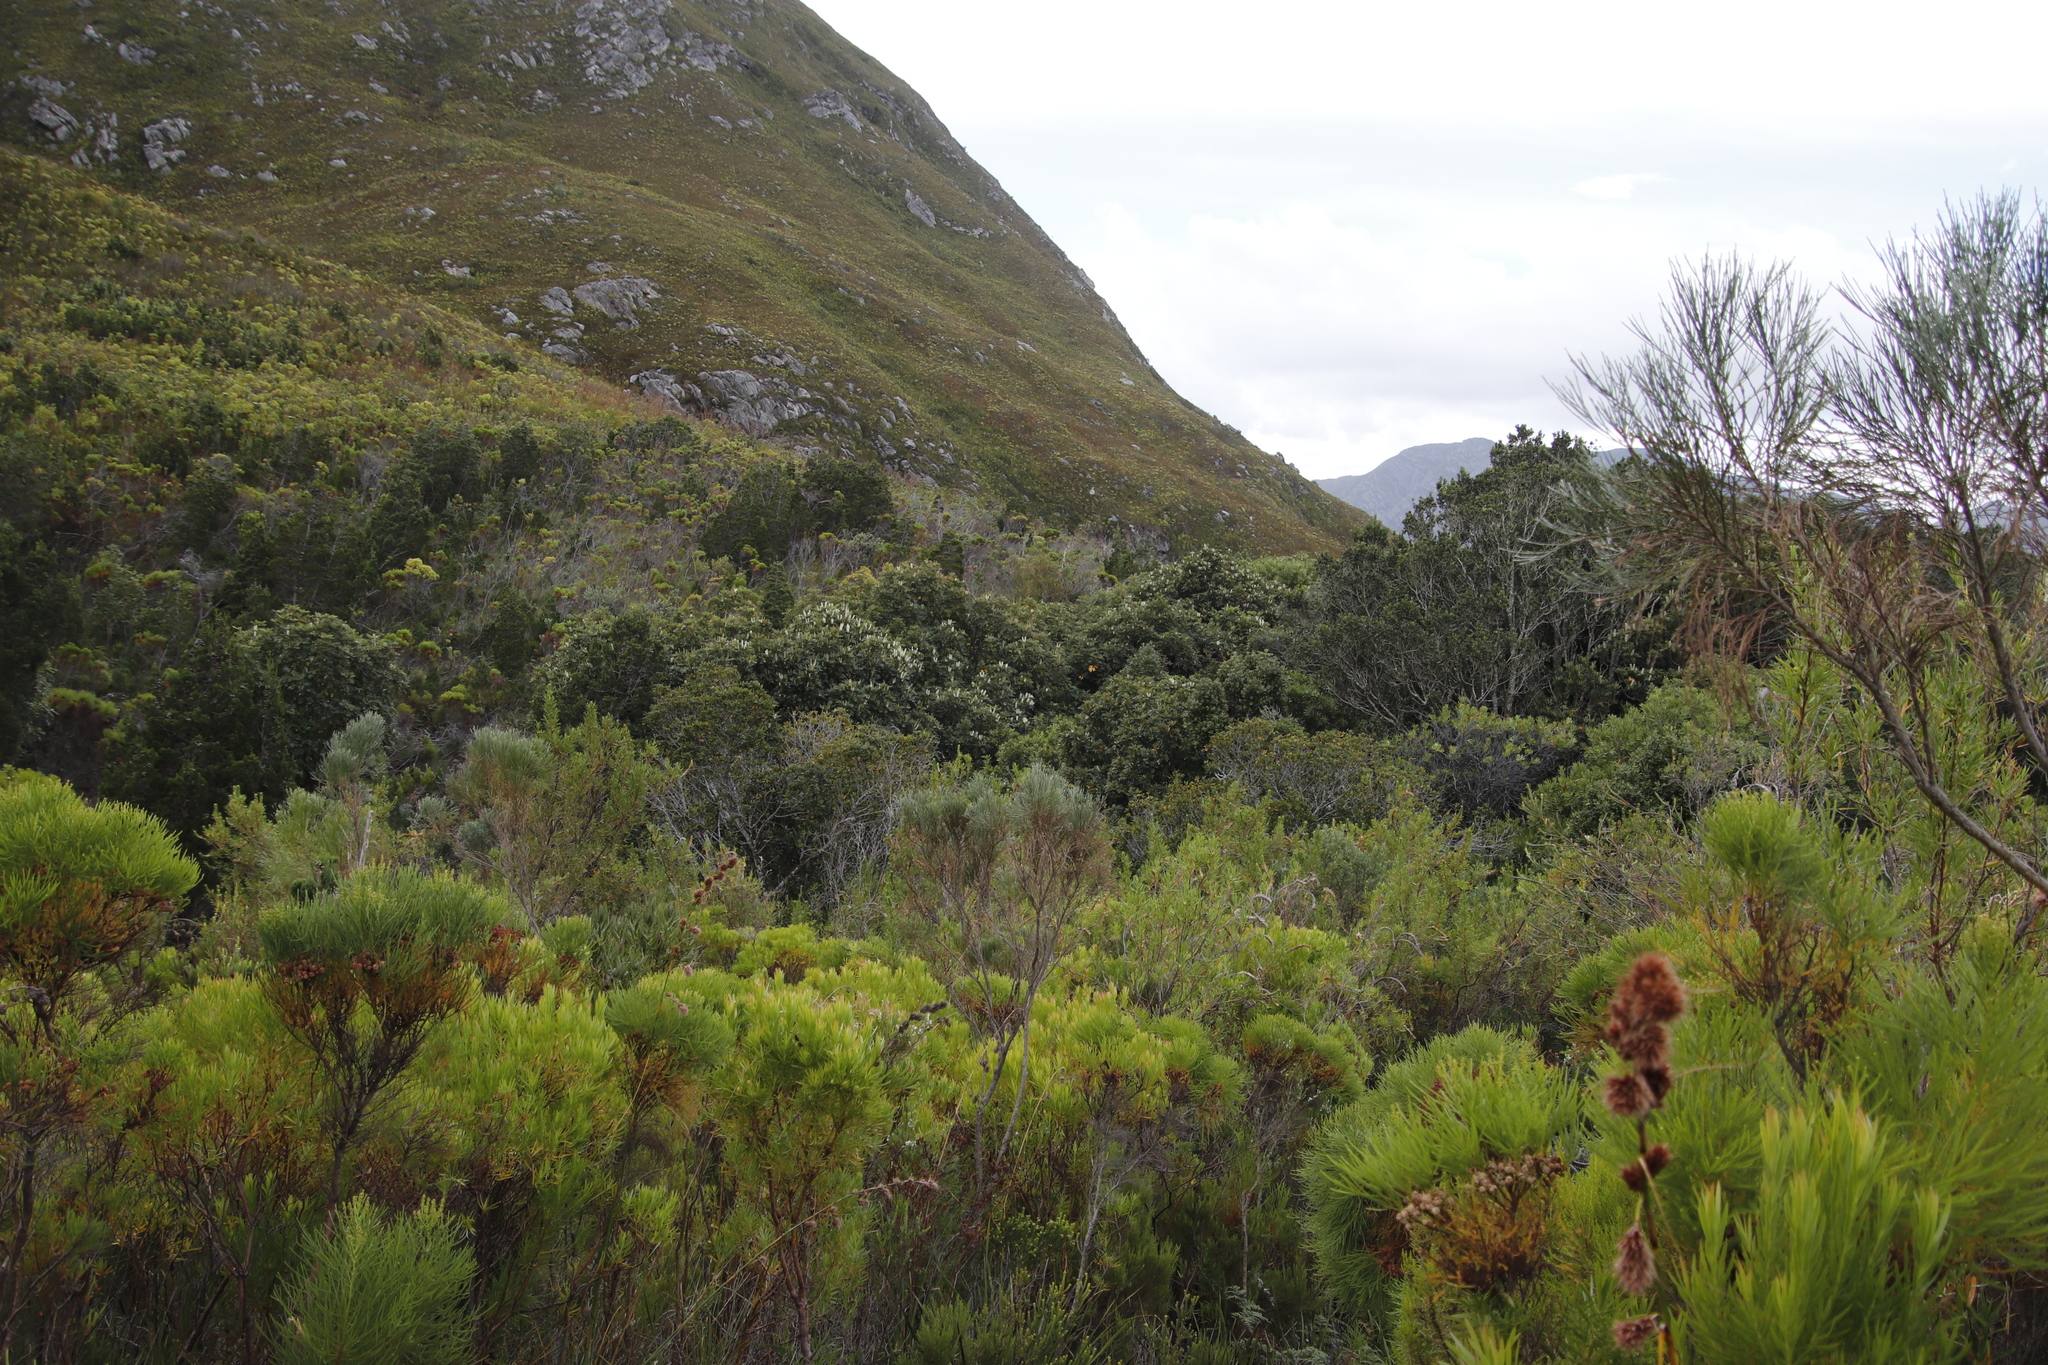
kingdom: Plantae
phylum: Tracheophyta
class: Magnoliopsida
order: Oxalidales
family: Cunoniaceae
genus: Cunonia
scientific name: Cunonia capensis
